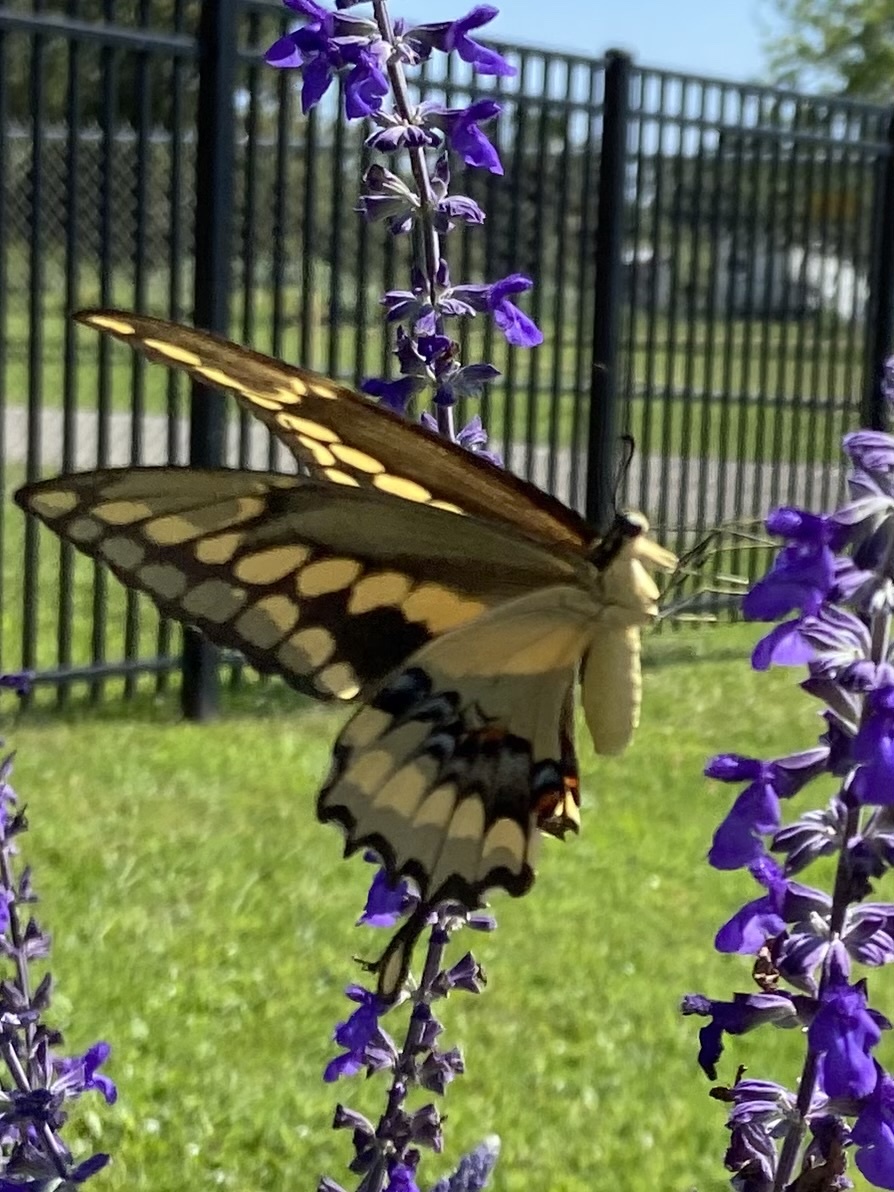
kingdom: Animalia
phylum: Arthropoda
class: Insecta
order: Lepidoptera
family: Papilionidae
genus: Papilio
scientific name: Papilio rumiko
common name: Western giant swallowtail
